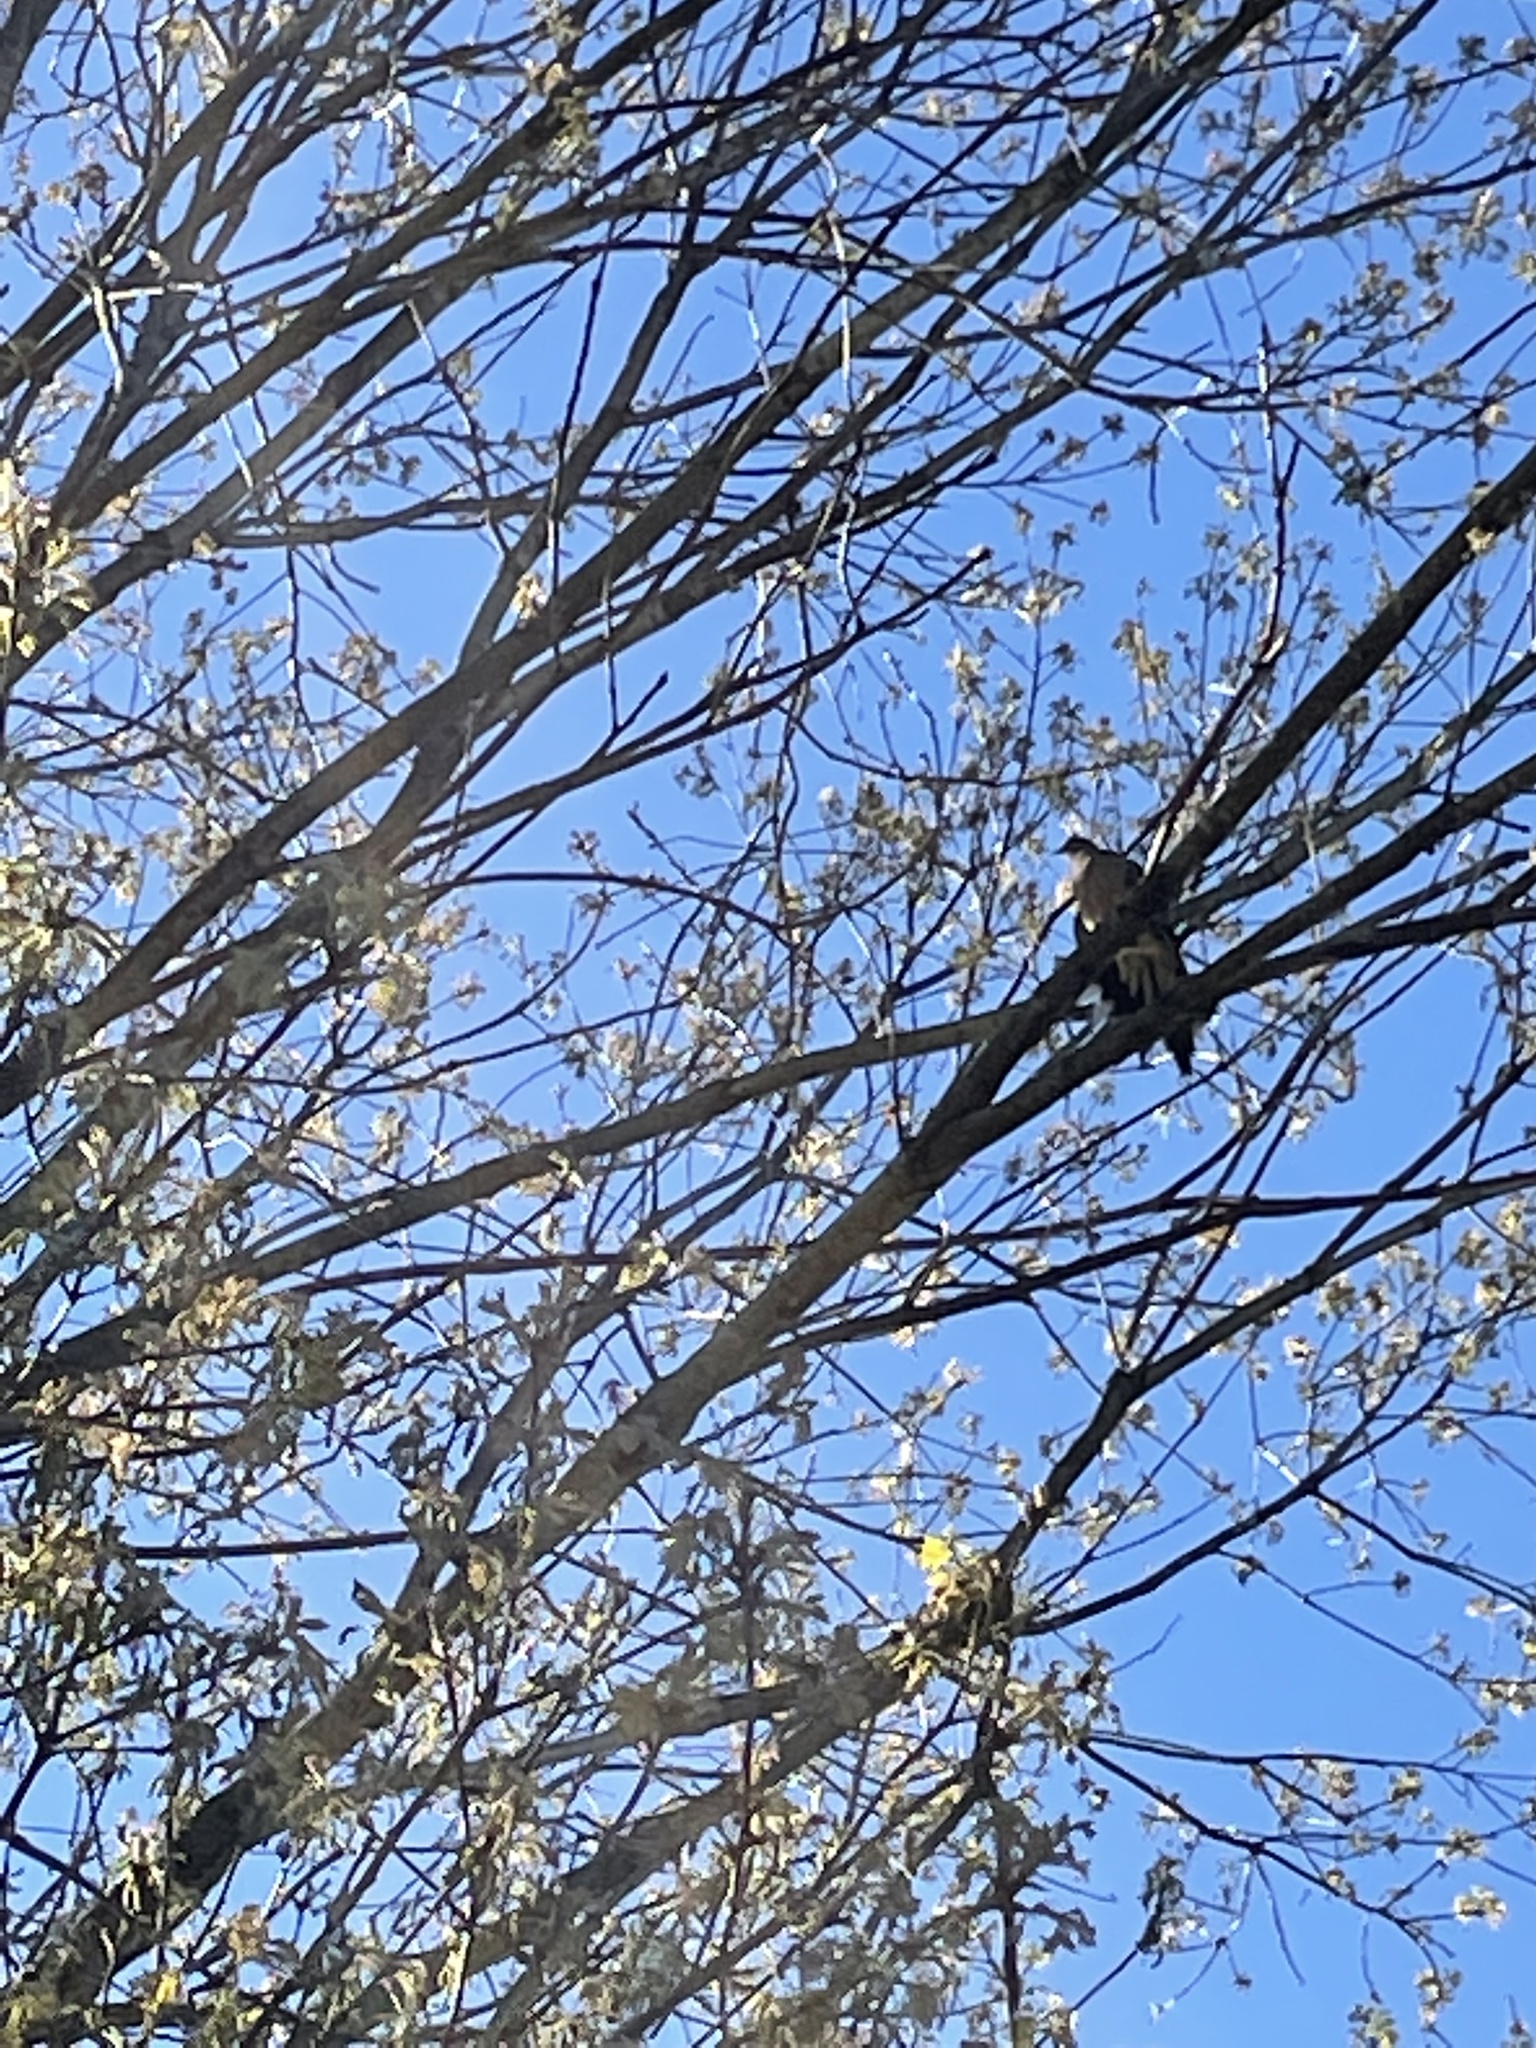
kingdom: Animalia
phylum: Chordata
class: Aves
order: Columbiformes
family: Columbidae
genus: Zenaida
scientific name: Zenaida macroura
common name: Mourning dove
